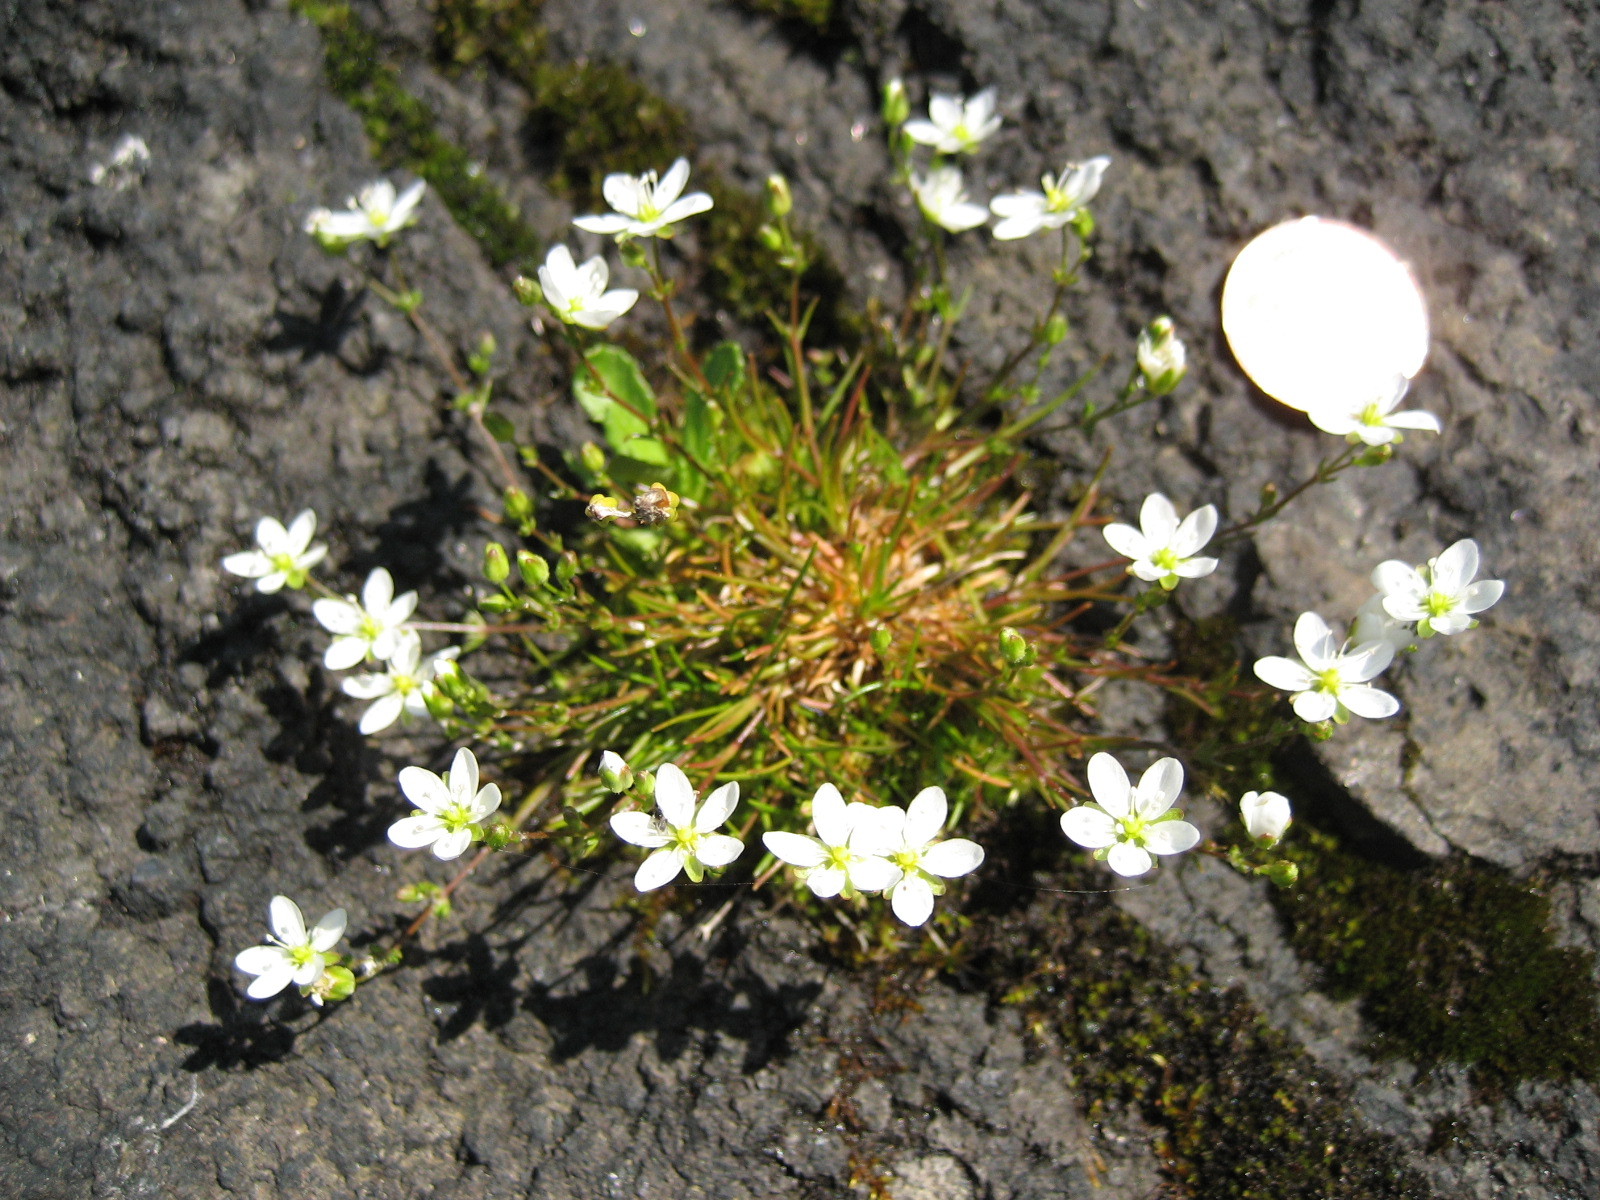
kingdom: Plantae
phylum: Tracheophyta
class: Magnoliopsida
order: Caryophyllales
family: Caryophyllaceae
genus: Sagina
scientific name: Sagina nodosa
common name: Knotted pearlwort
